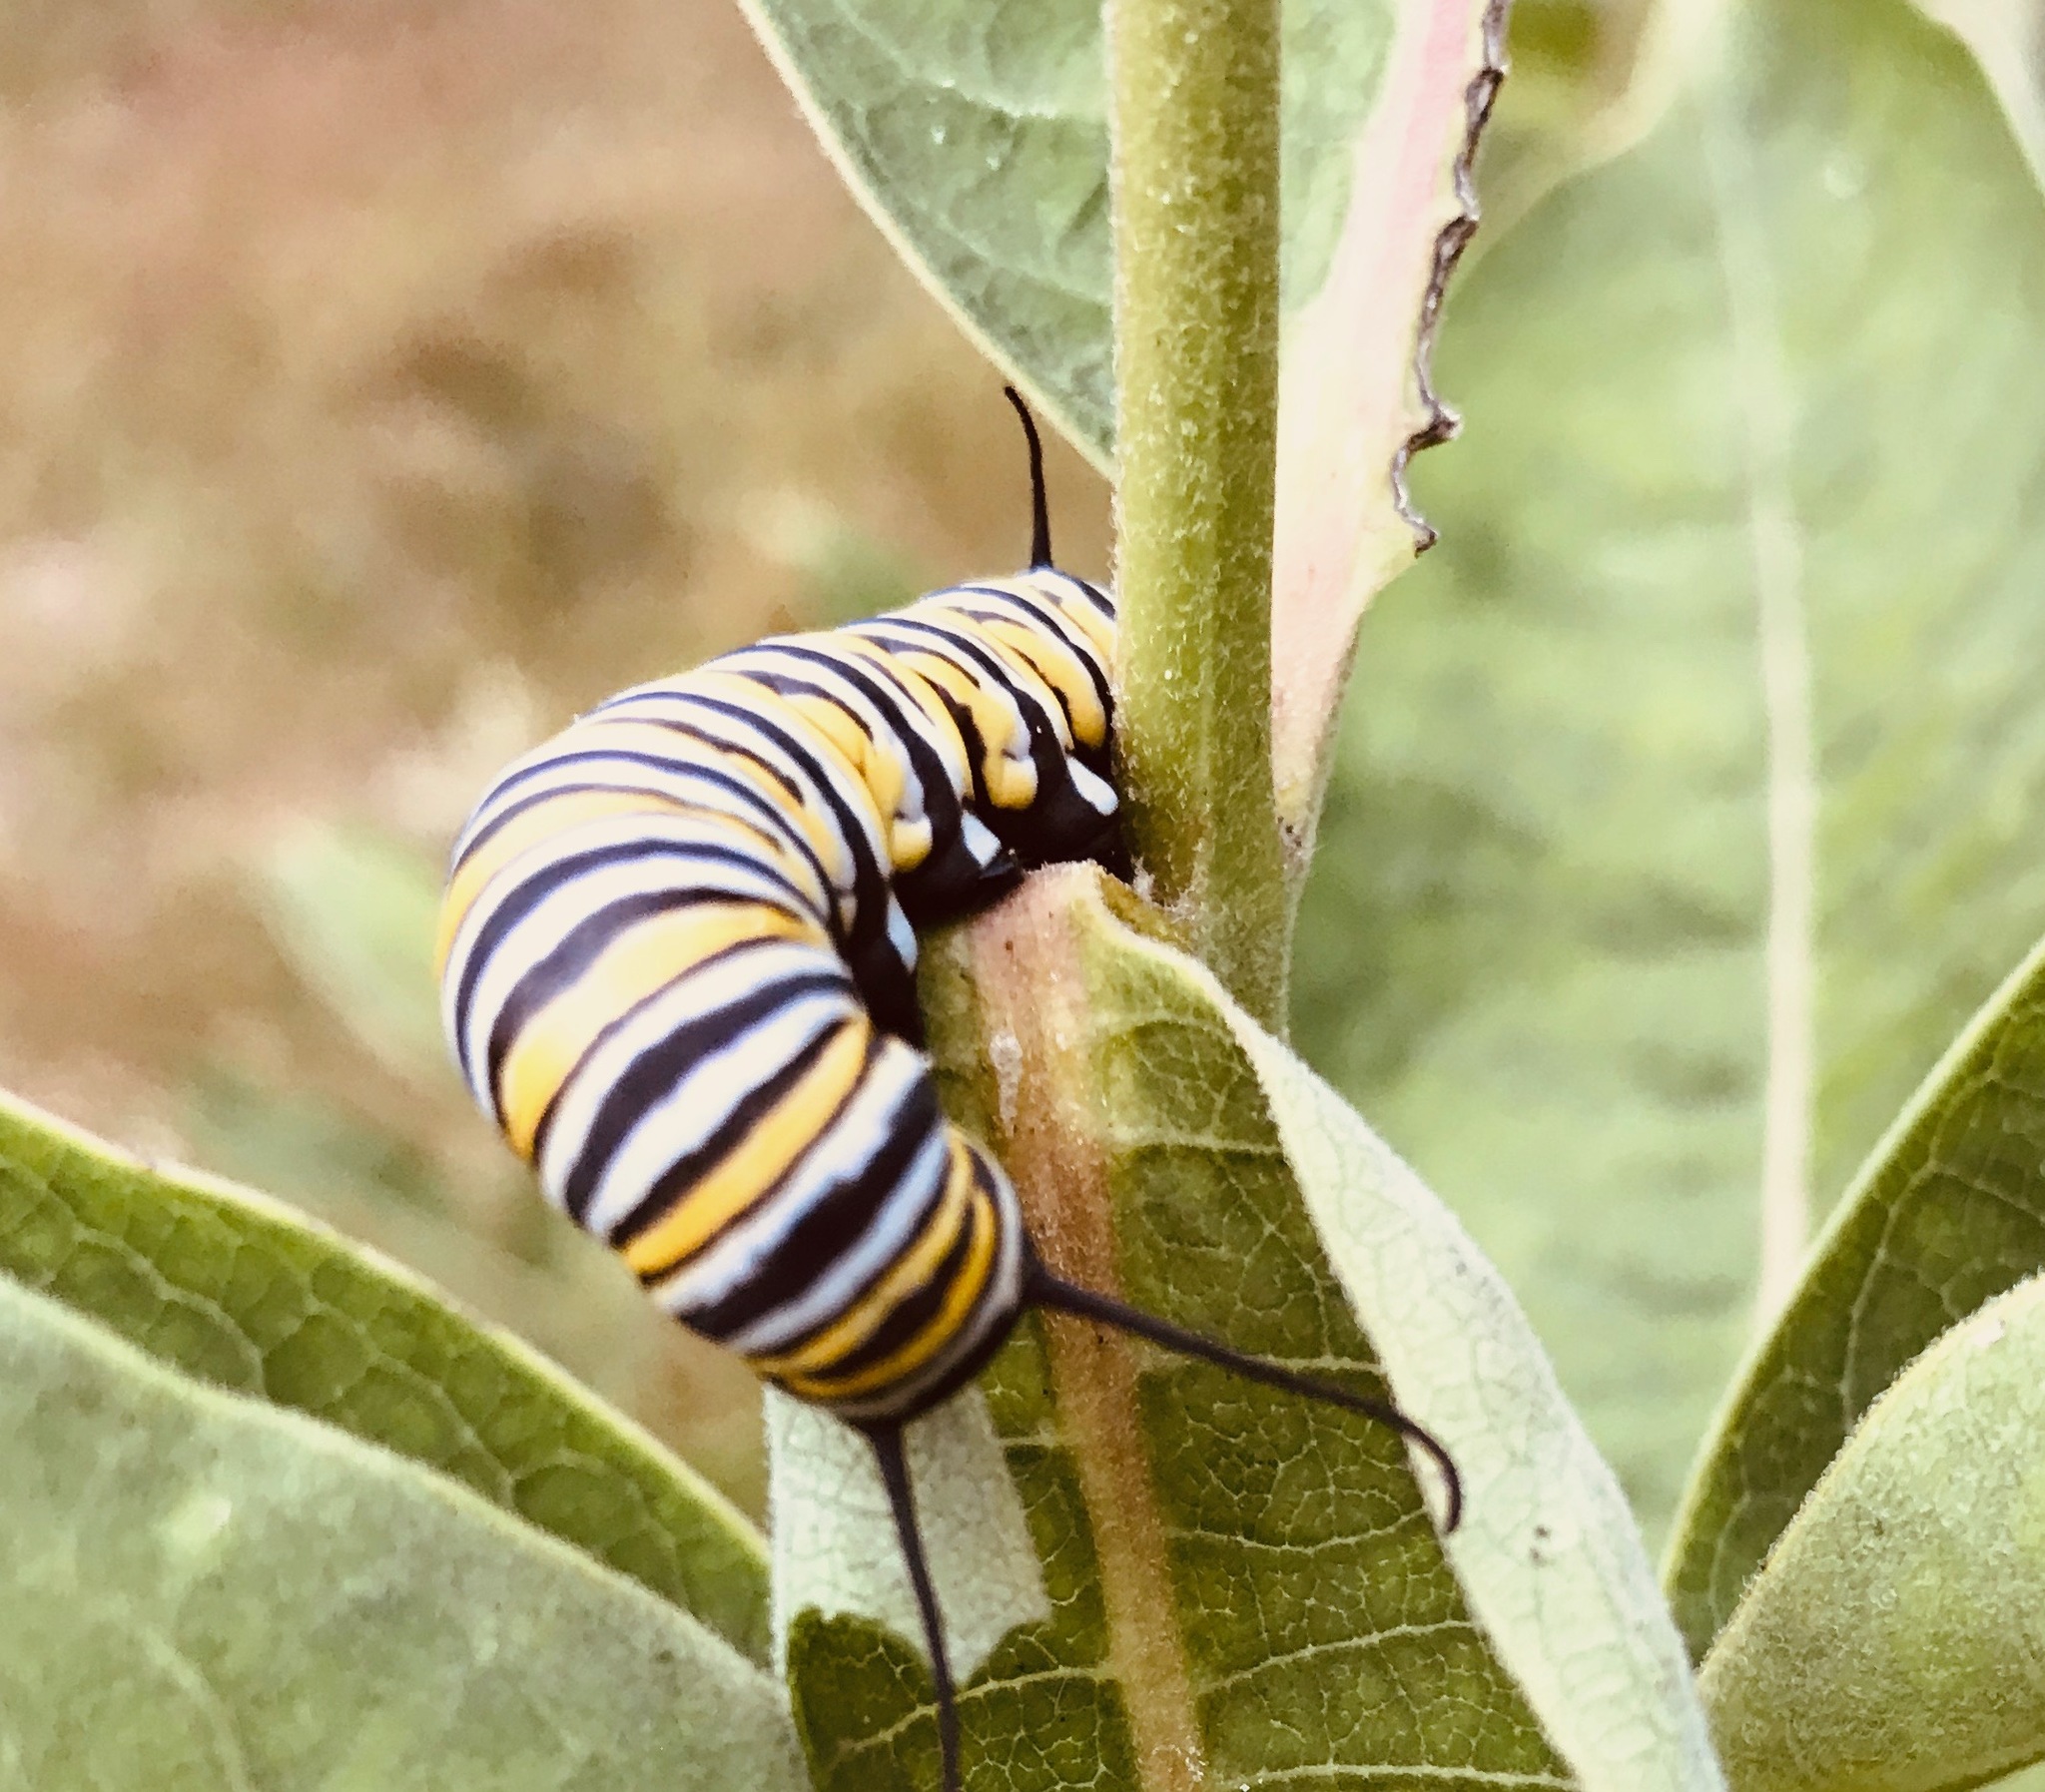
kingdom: Animalia
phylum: Arthropoda
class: Insecta
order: Lepidoptera
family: Nymphalidae
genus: Danaus
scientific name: Danaus plexippus
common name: Monarch
